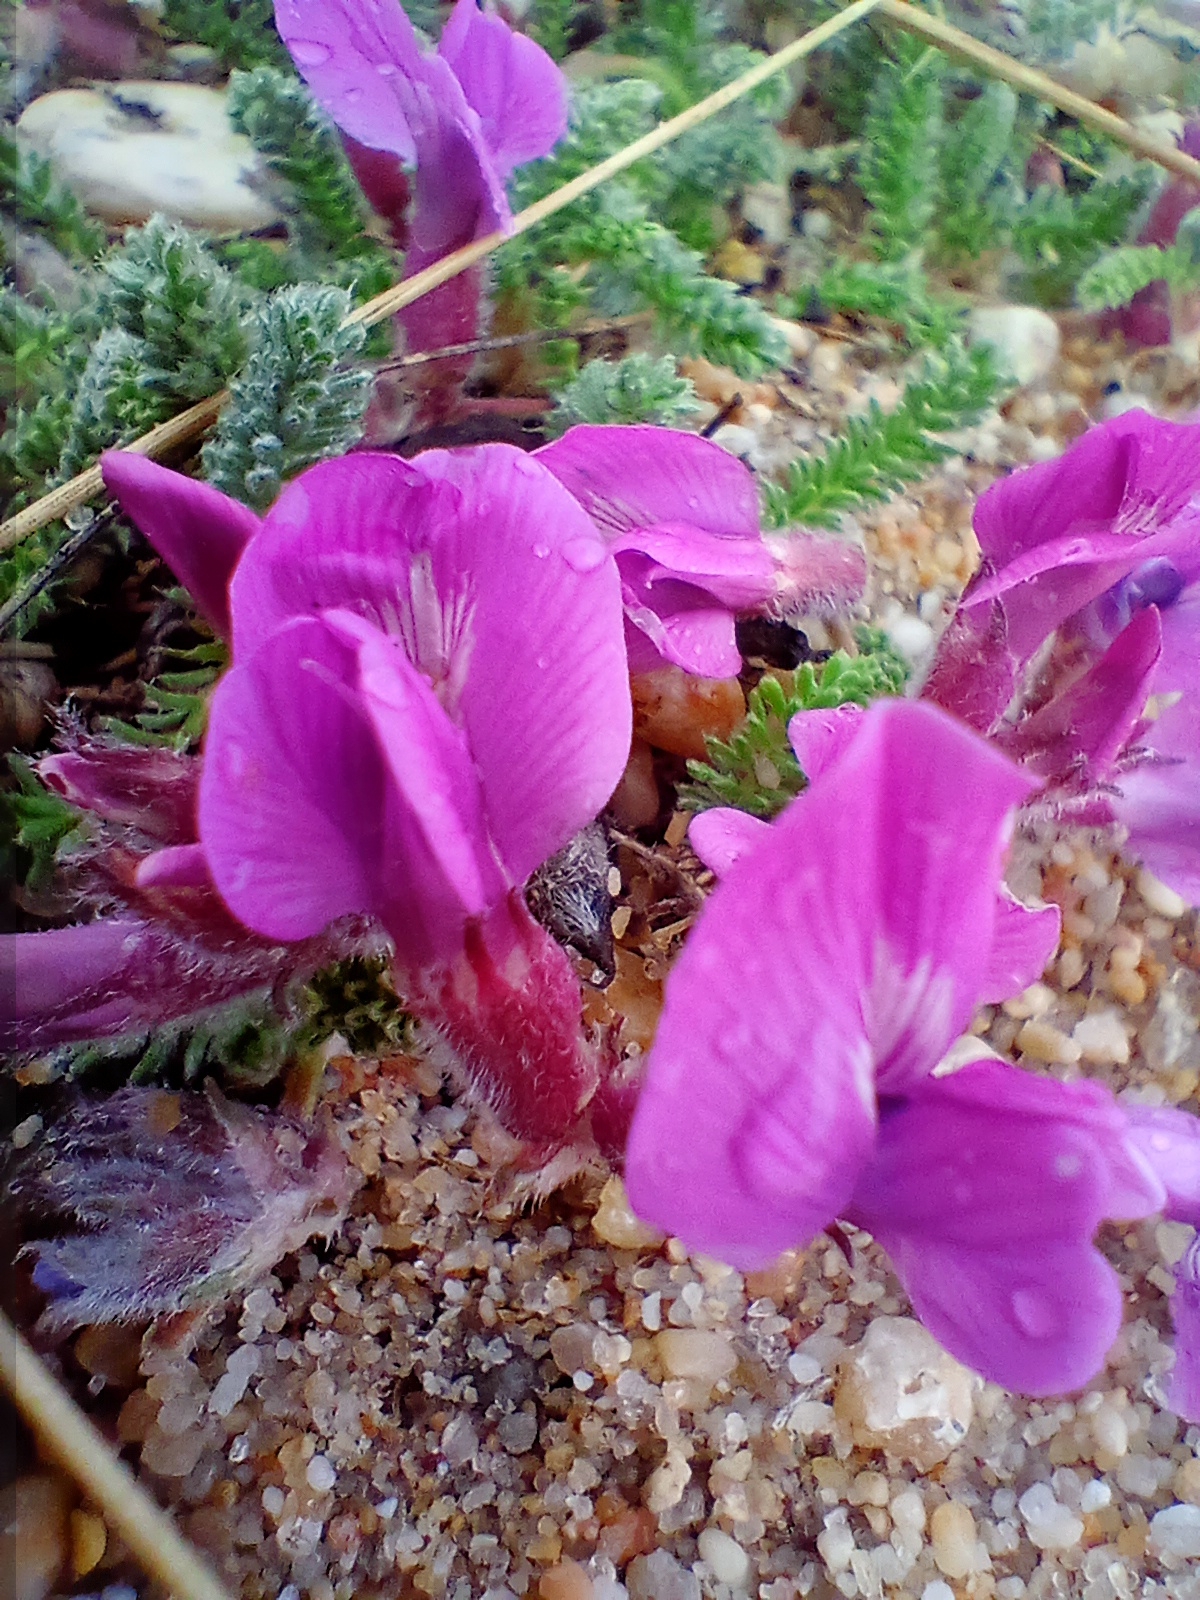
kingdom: Plantae
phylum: Tracheophyta
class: Magnoliopsida
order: Fabales
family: Fabaceae
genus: Oxytropis
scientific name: Oxytropis lanata
